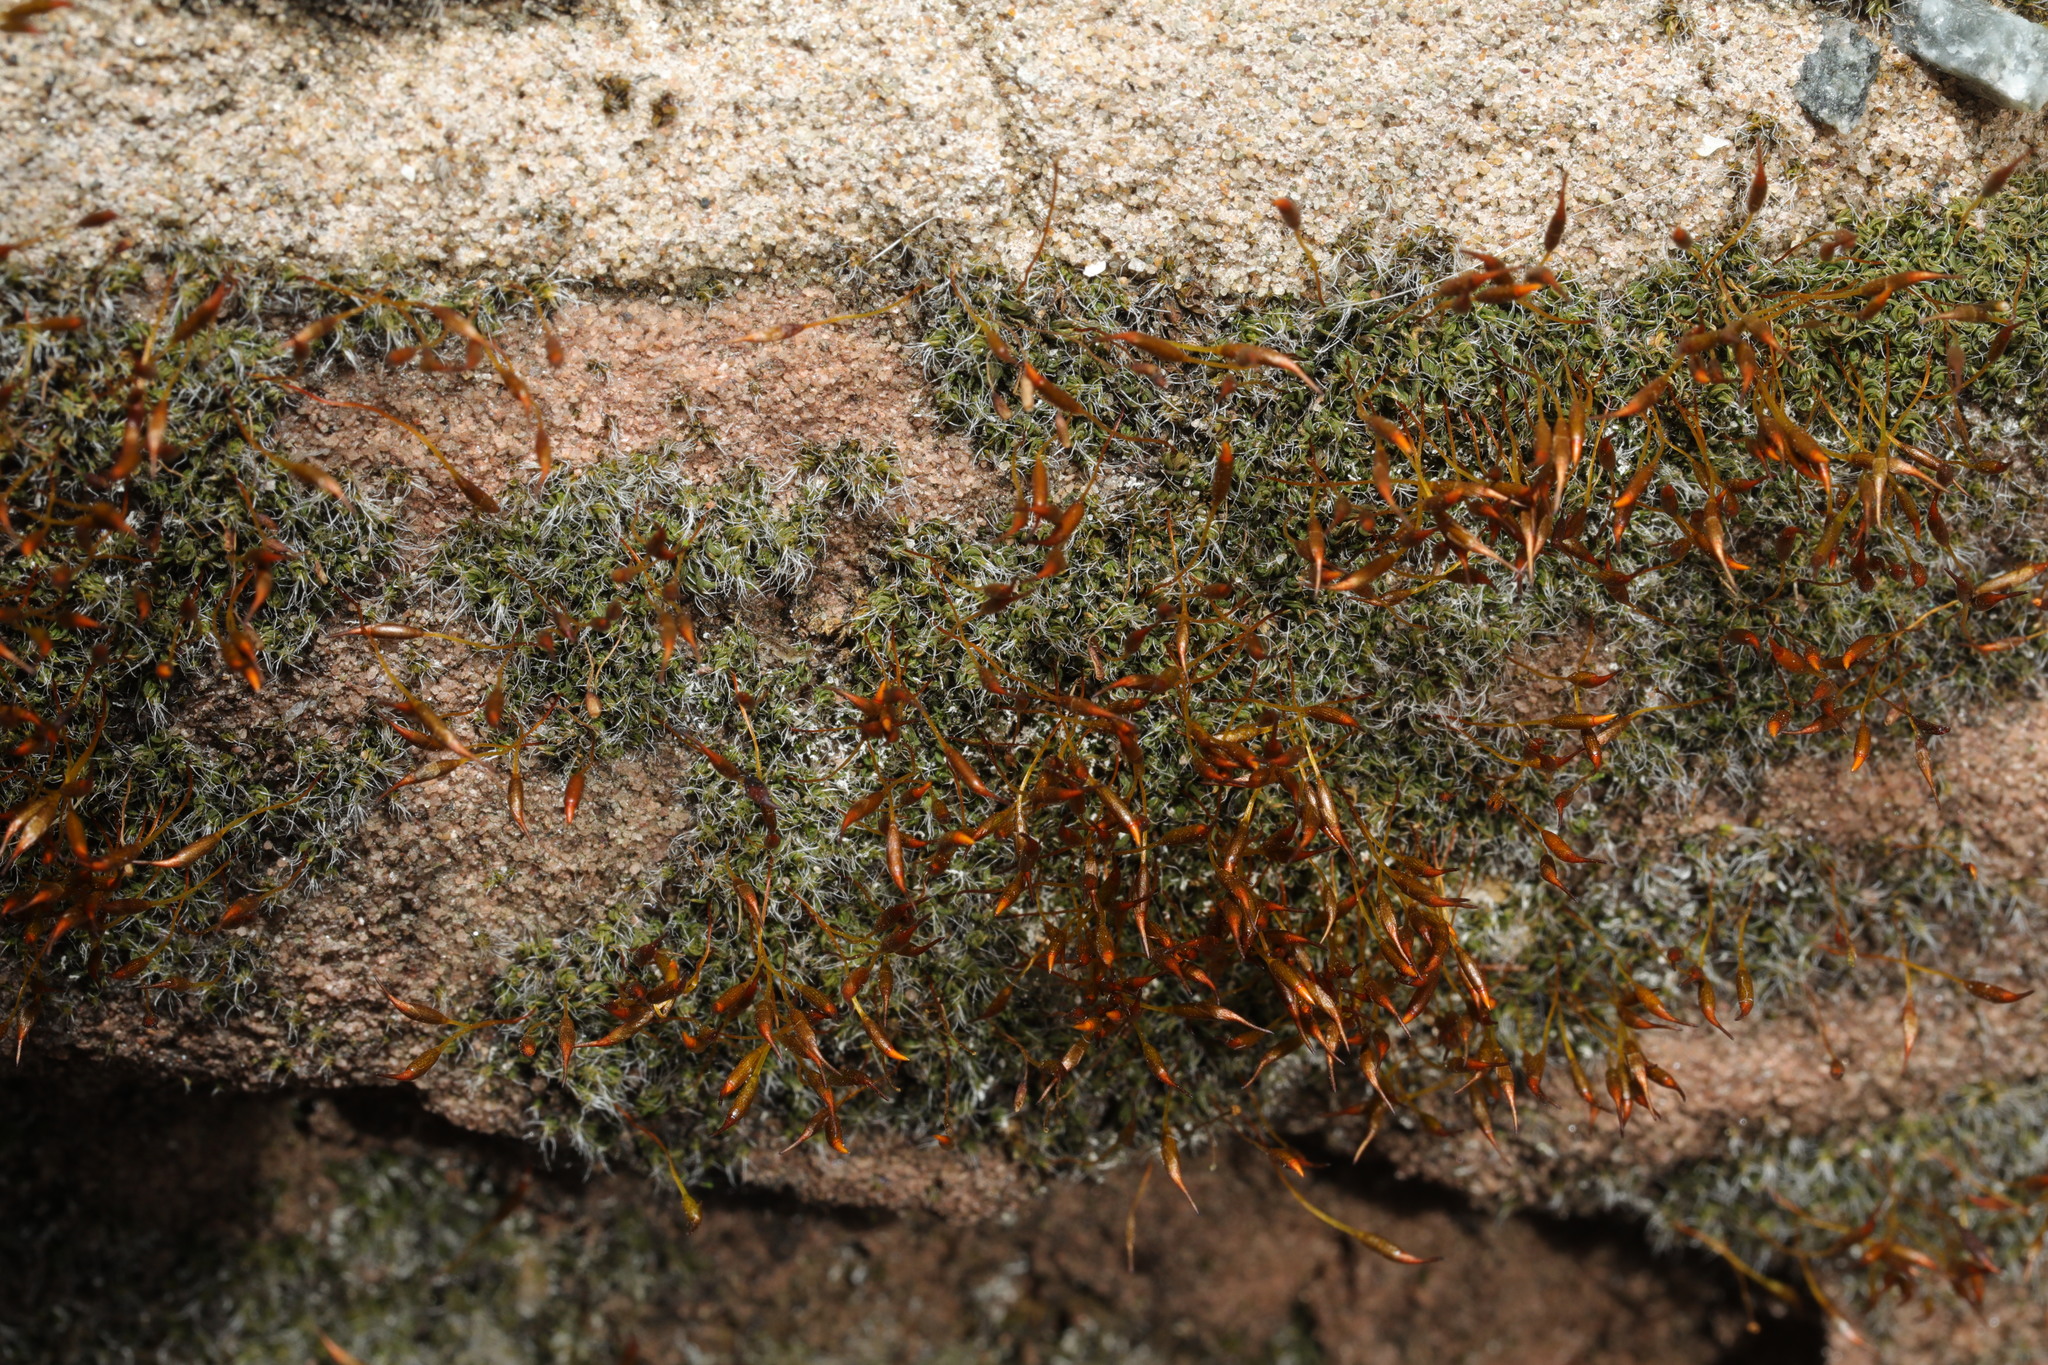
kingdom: Plantae
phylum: Bryophyta
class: Bryopsida
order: Pottiales
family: Pottiaceae
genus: Tortula
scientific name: Tortula muralis
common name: Wall screw-moss
